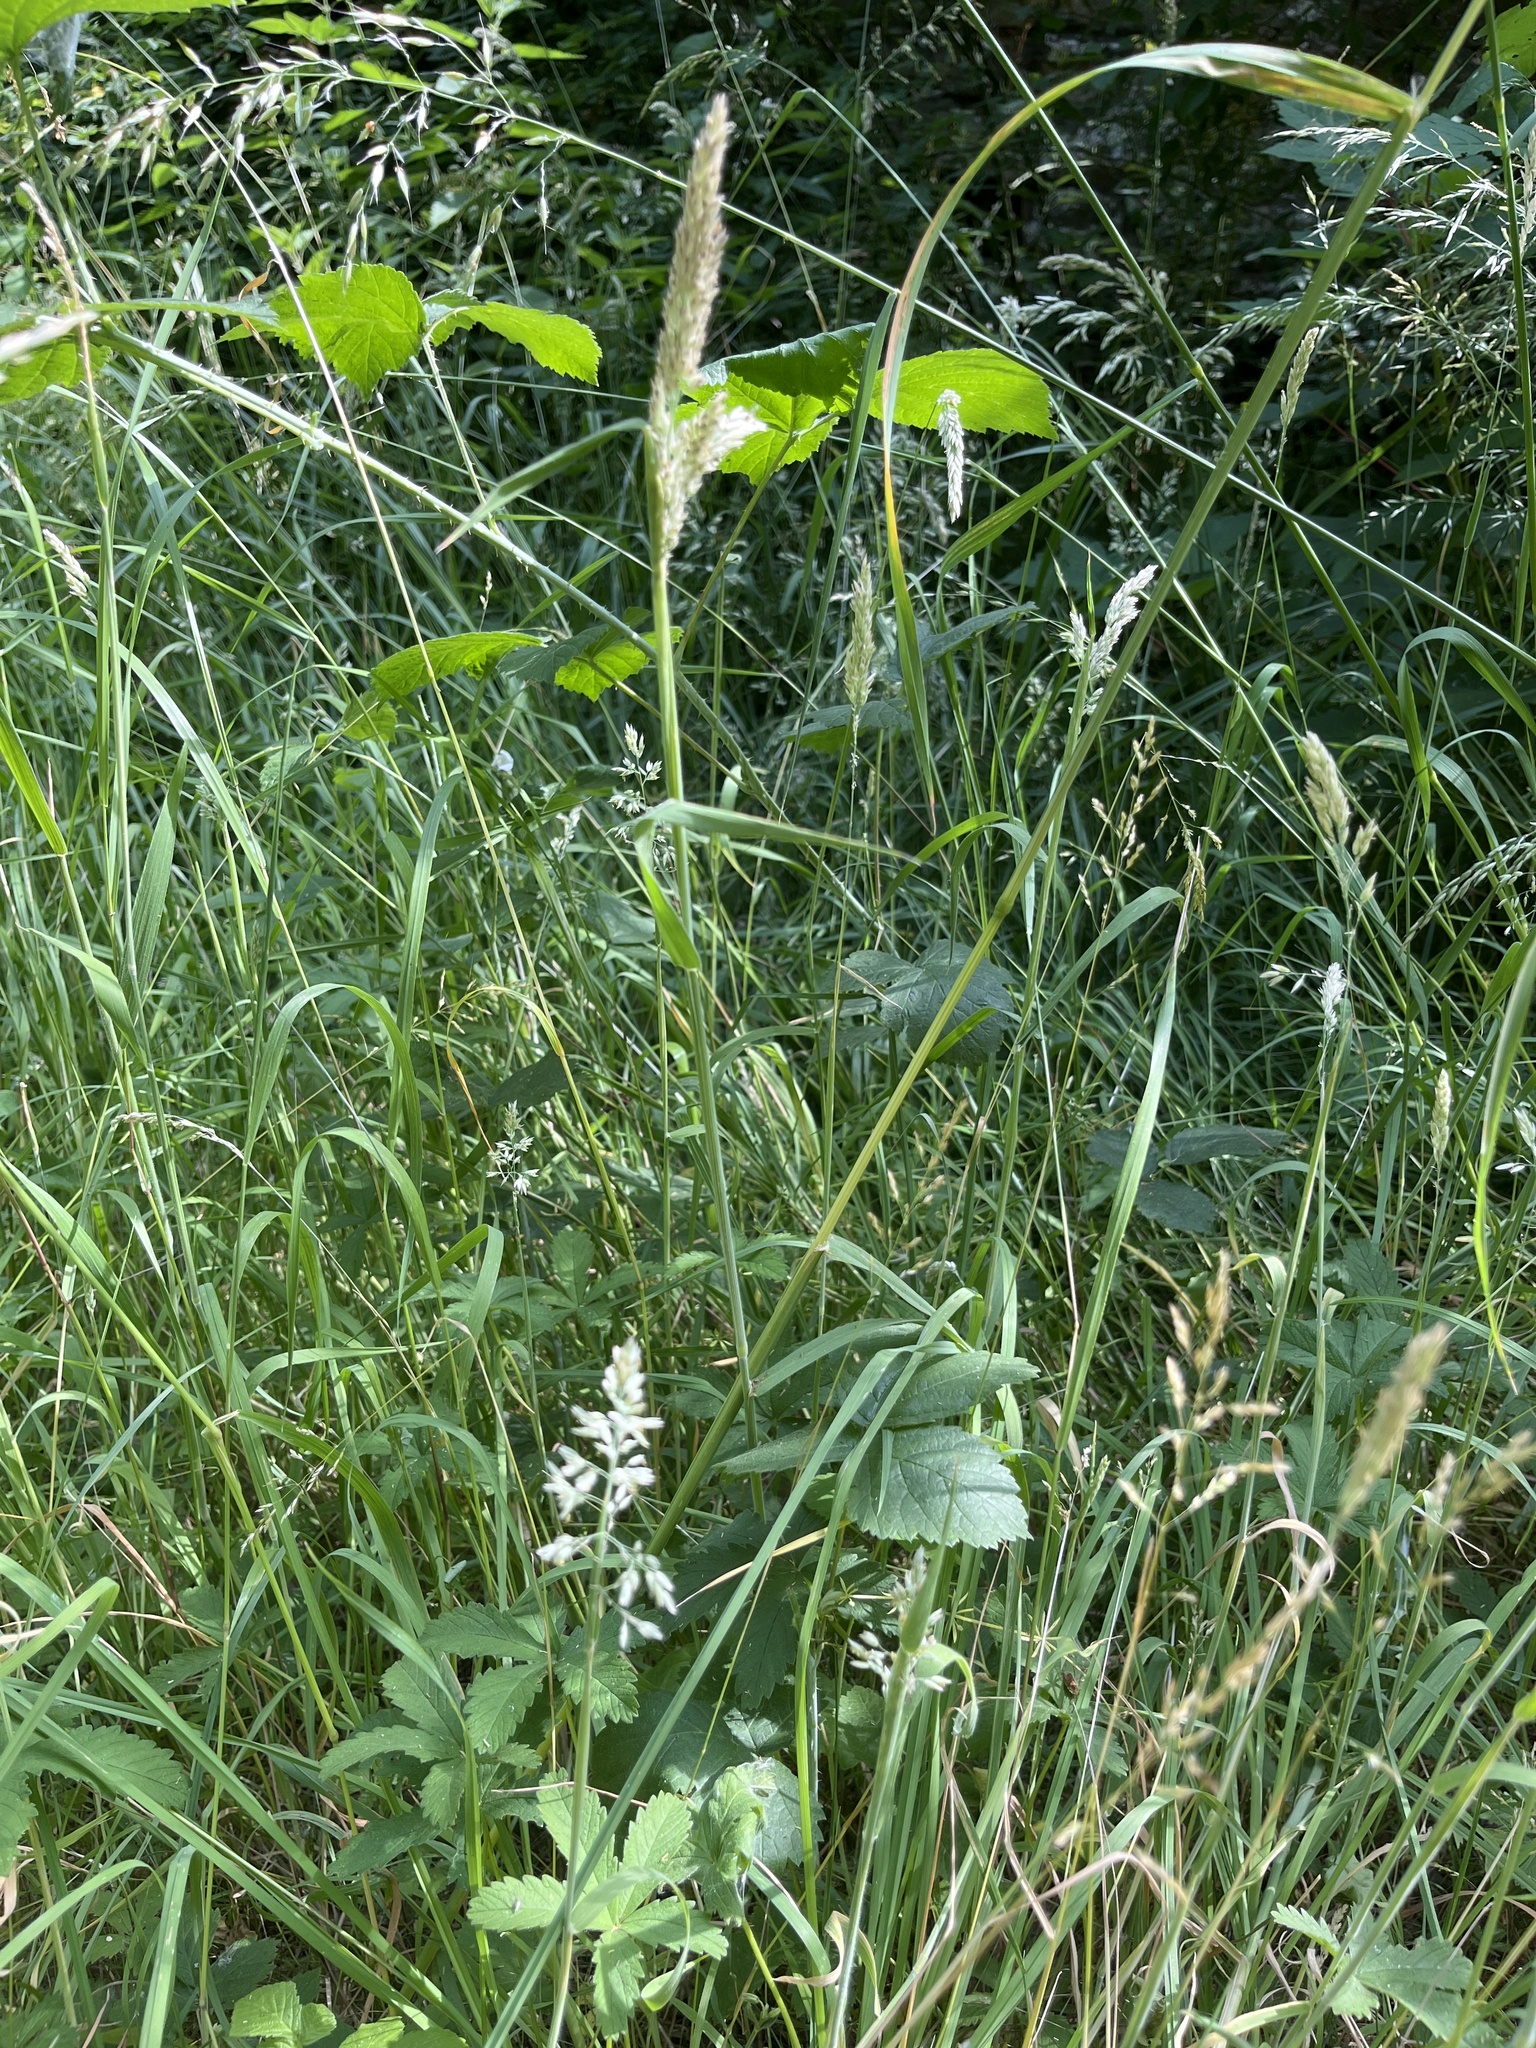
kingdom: Plantae
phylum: Tracheophyta
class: Liliopsida
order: Poales
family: Poaceae
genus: Holcus
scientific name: Holcus lanatus
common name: Yorkshire-fog
